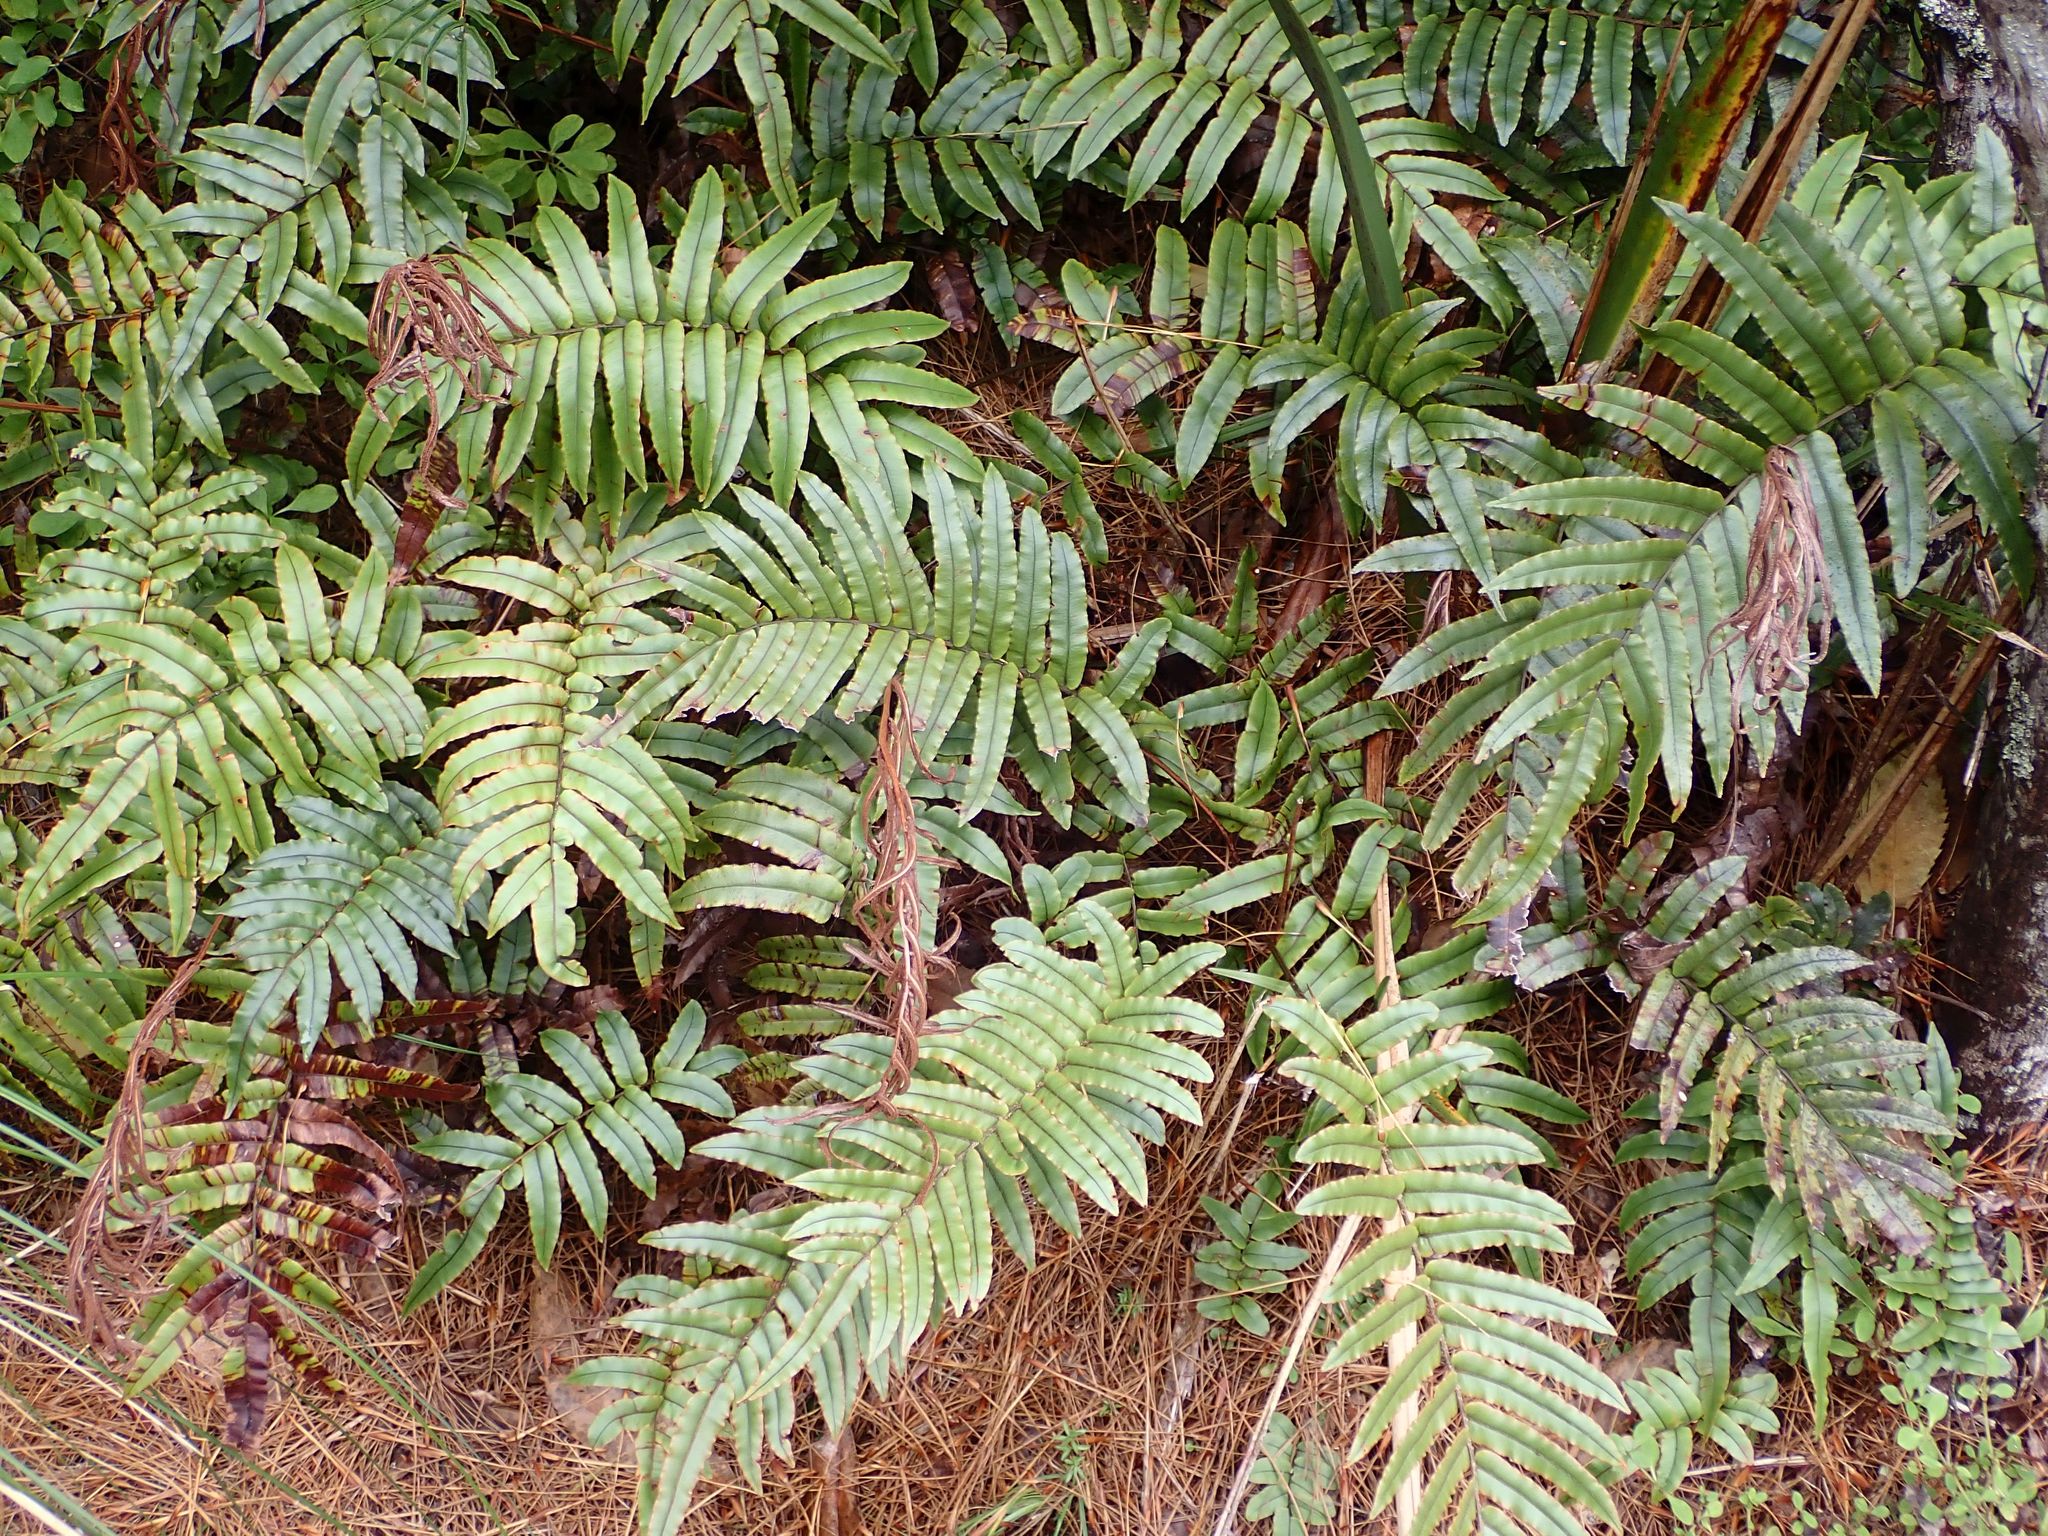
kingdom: Plantae
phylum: Tracheophyta
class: Polypodiopsida
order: Polypodiales
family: Blechnaceae
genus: Parablechnum
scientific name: Parablechnum procerum
